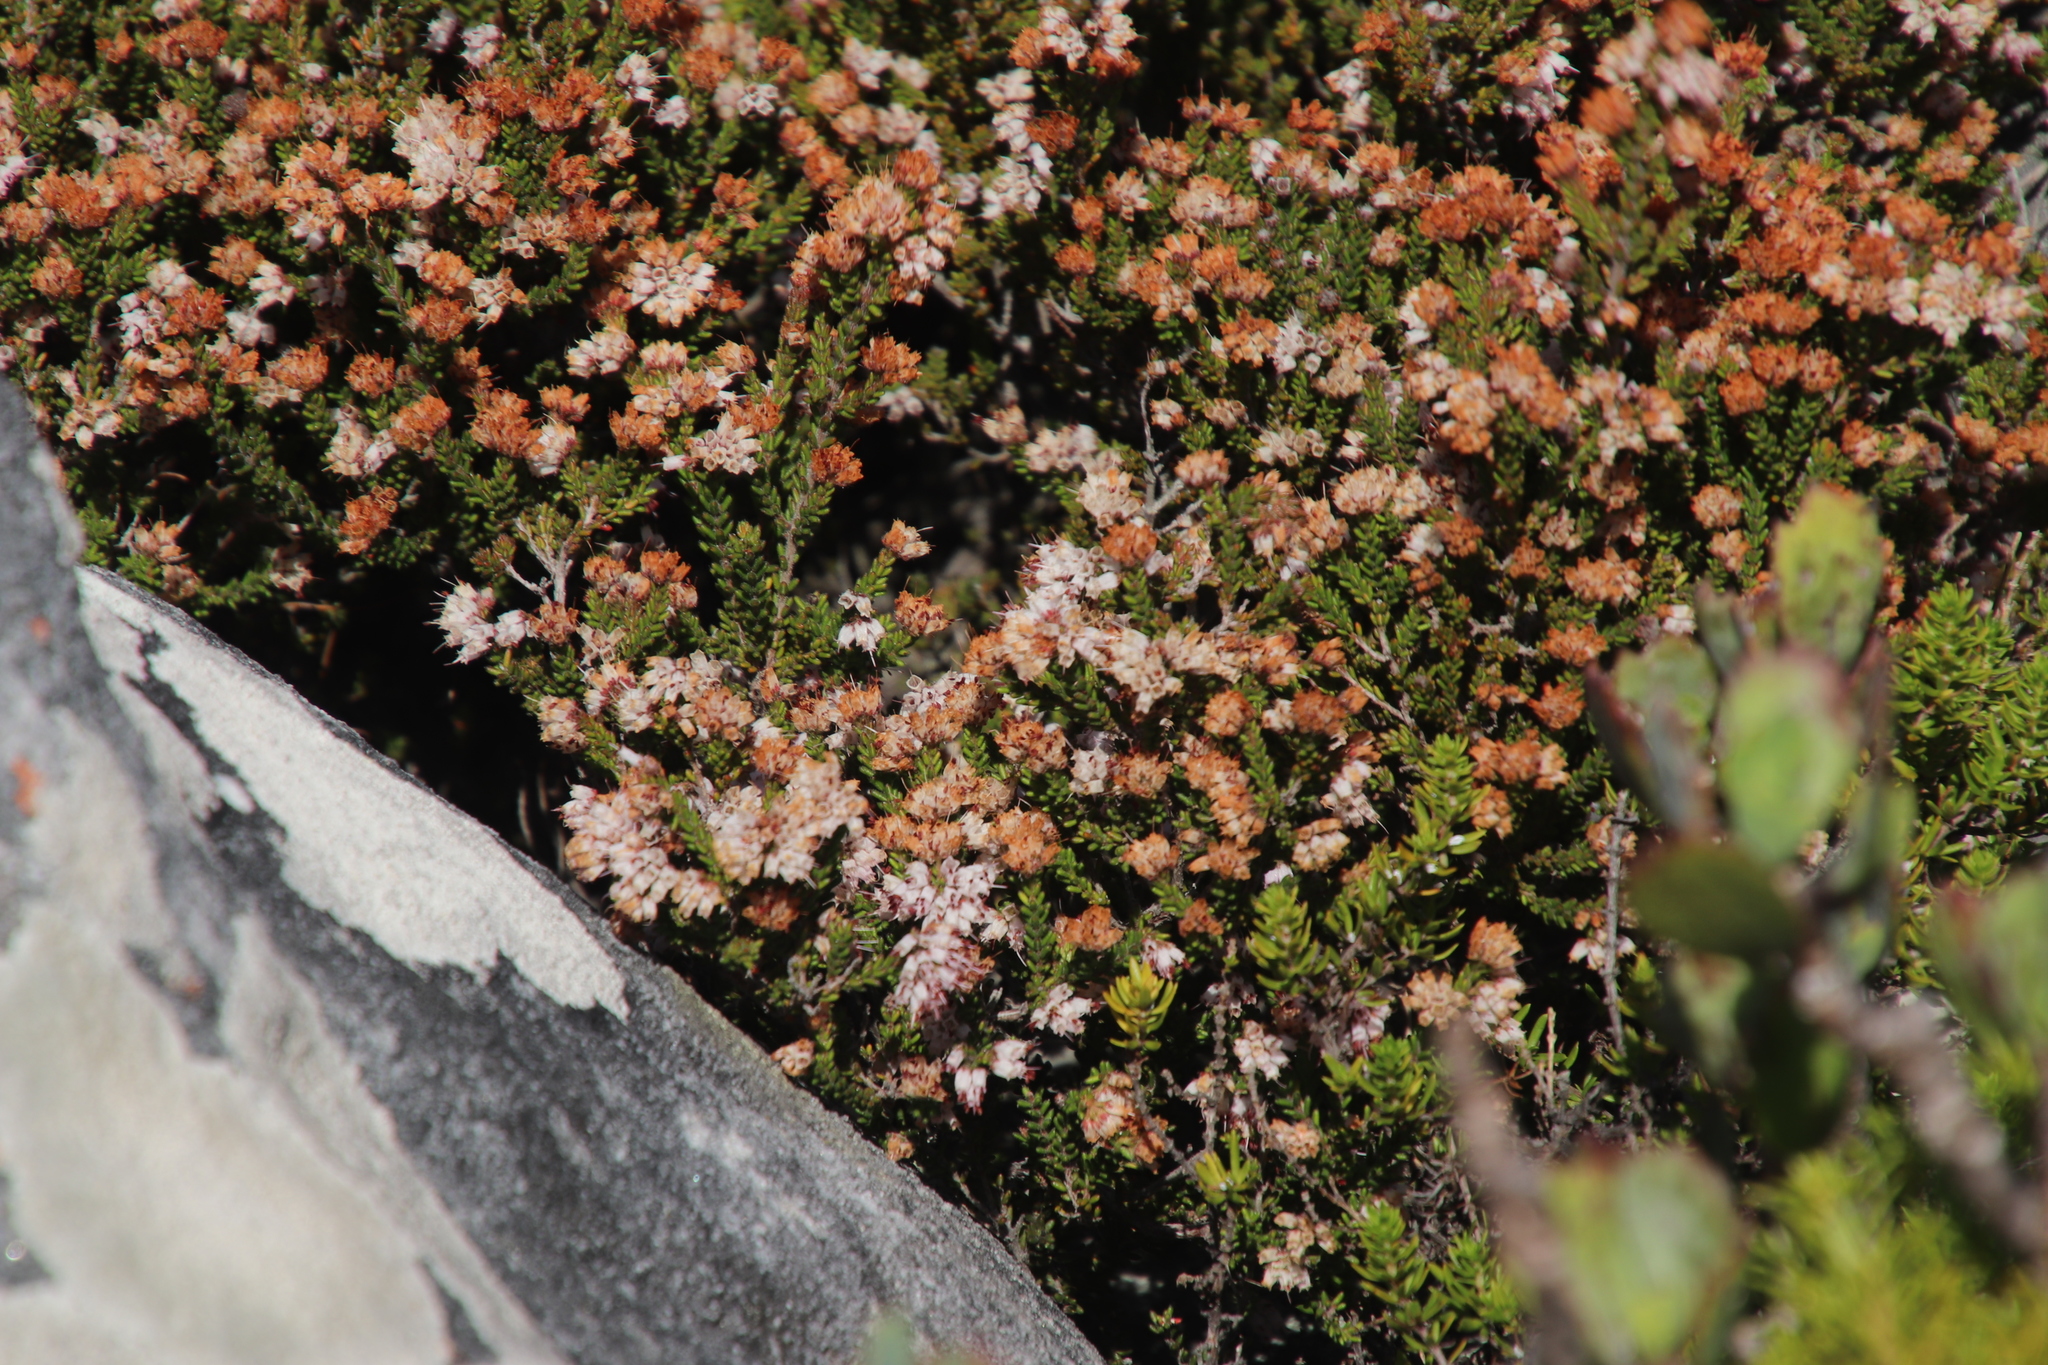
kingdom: Plantae
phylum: Tracheophyta
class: Magnoliopsida
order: Ericales
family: Ericaceae
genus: Erica
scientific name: Erica ericoides
